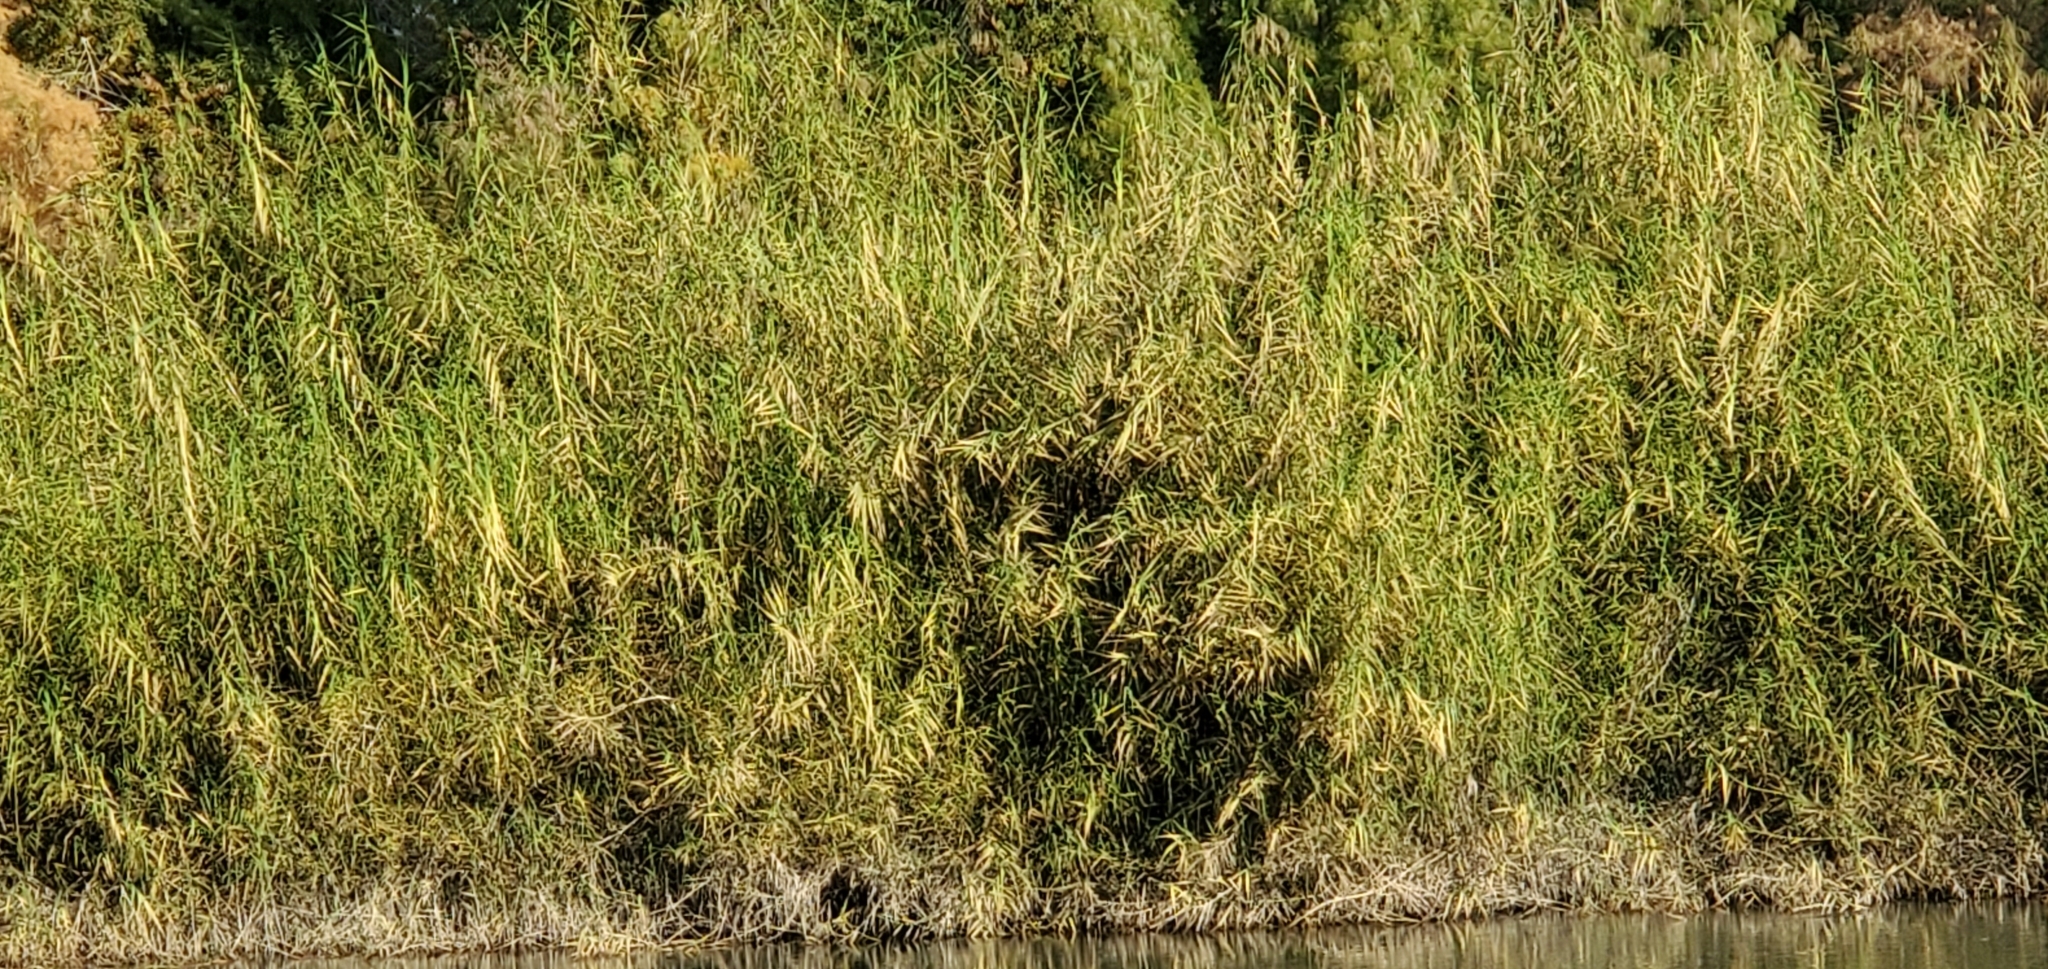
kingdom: Plantae
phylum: Tracheophyta
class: Liliopsida
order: Poales
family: Poaceae
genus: Phragmites
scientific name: Phragmites australis
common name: Common reed
